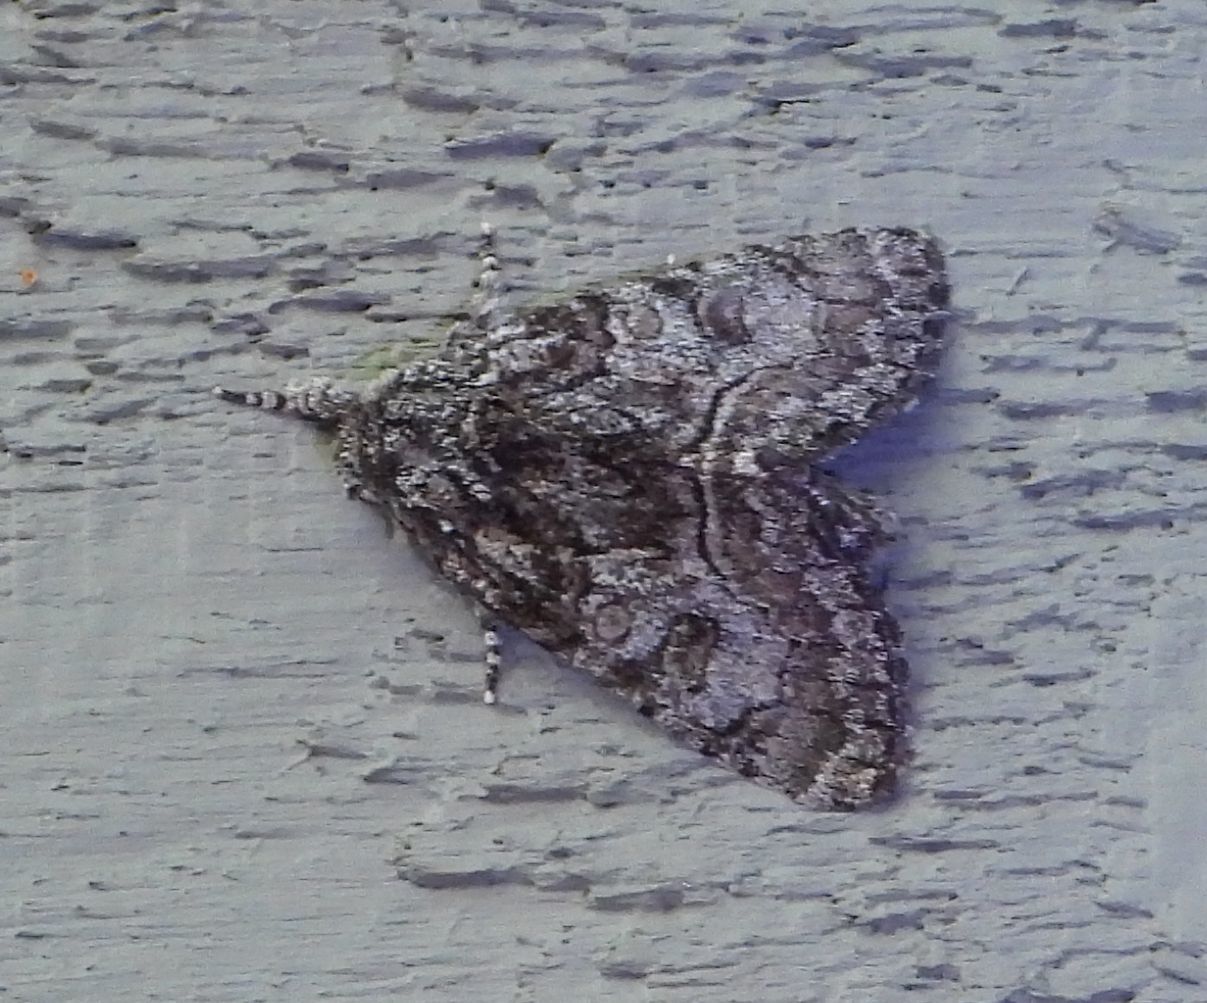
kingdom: Animalia
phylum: Arthropoda
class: Insecta
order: Lepidoptera
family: Noctuidae
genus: Raphia
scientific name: Raphia frater
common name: Brother
